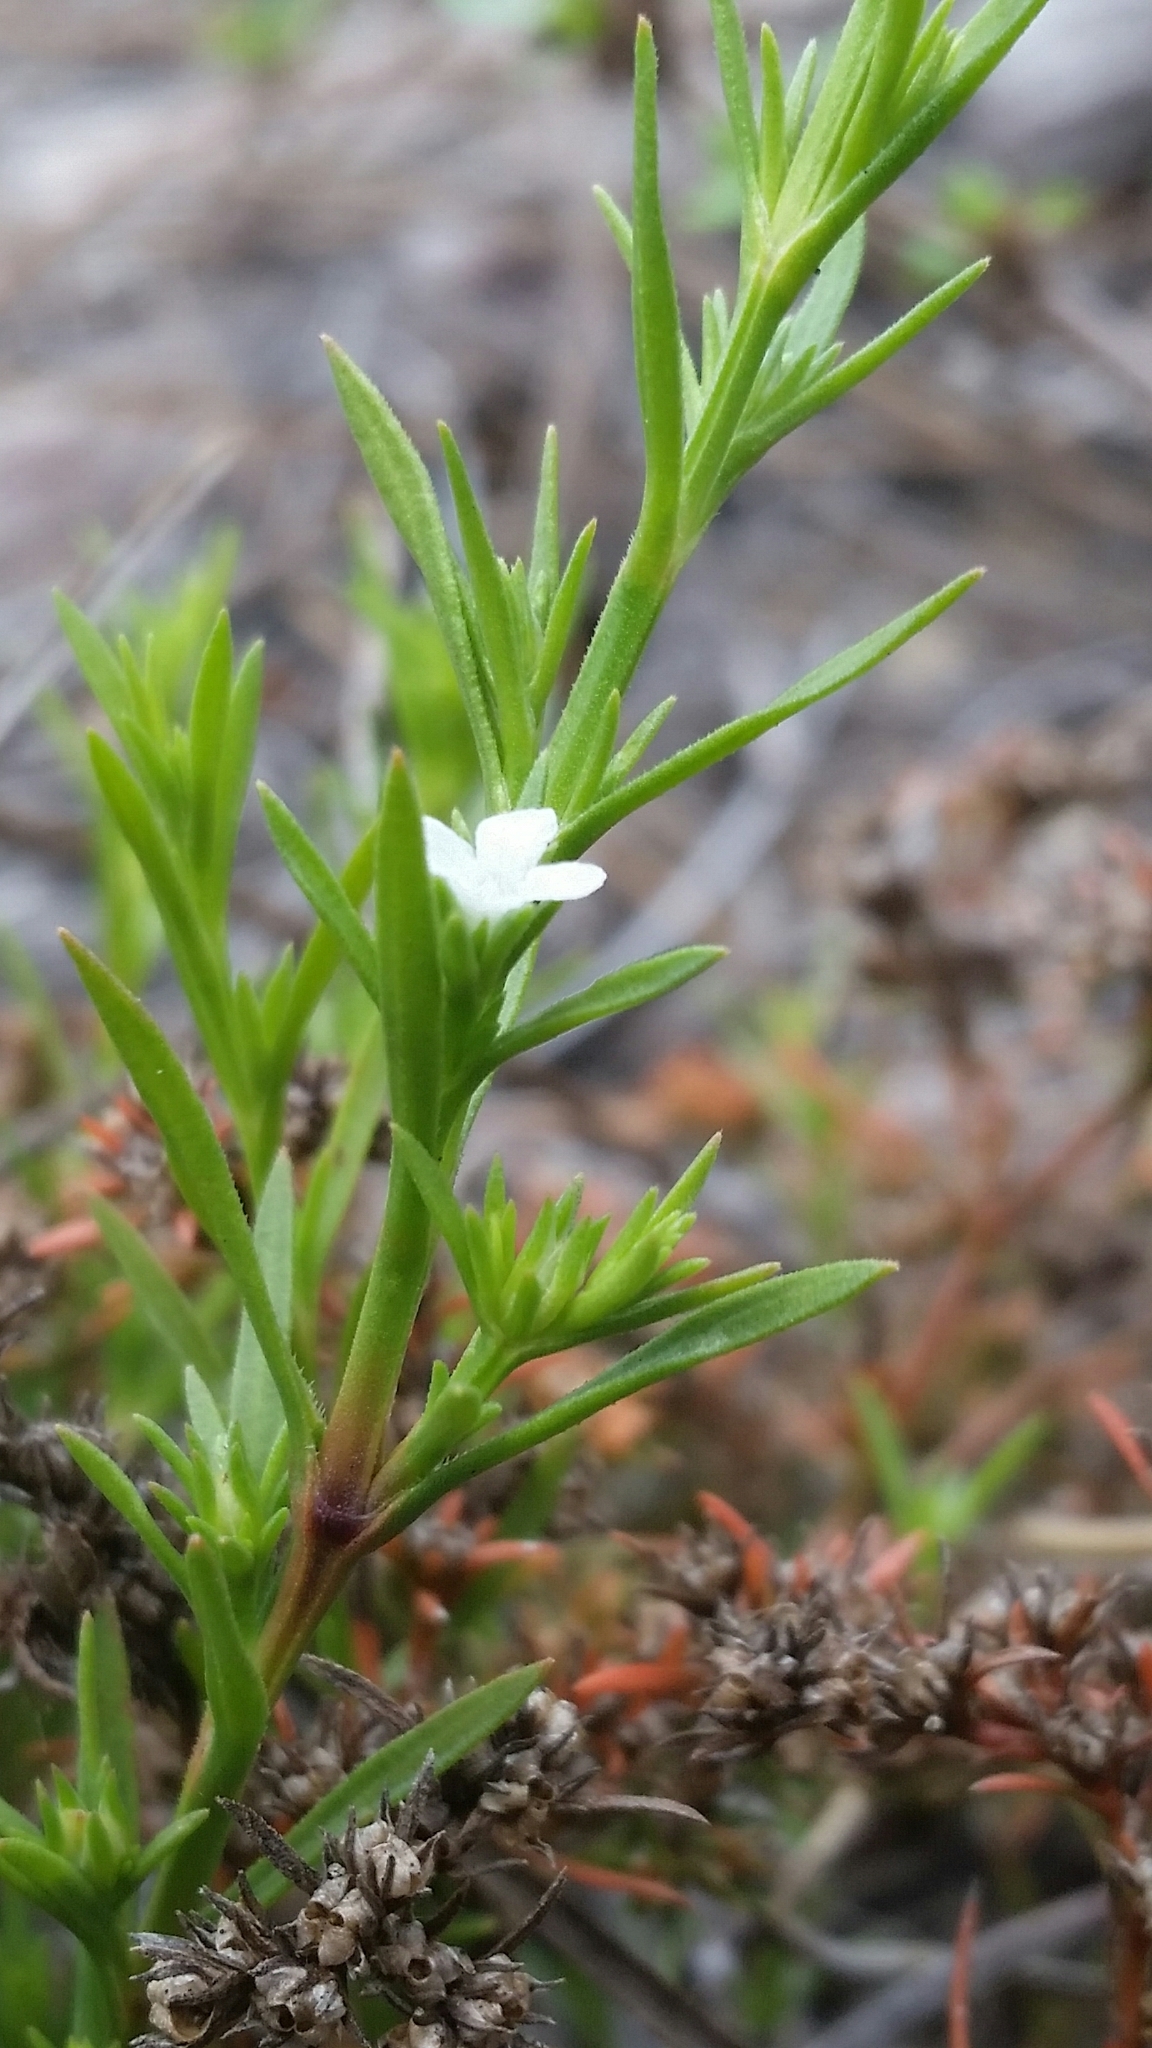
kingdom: Plantae
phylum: Tracheophyta
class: Magnoliopsida
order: Lamiales
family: Tetrachondraceae
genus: Polypremum
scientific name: Polypremum procumbens
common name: Juniper-leaf
